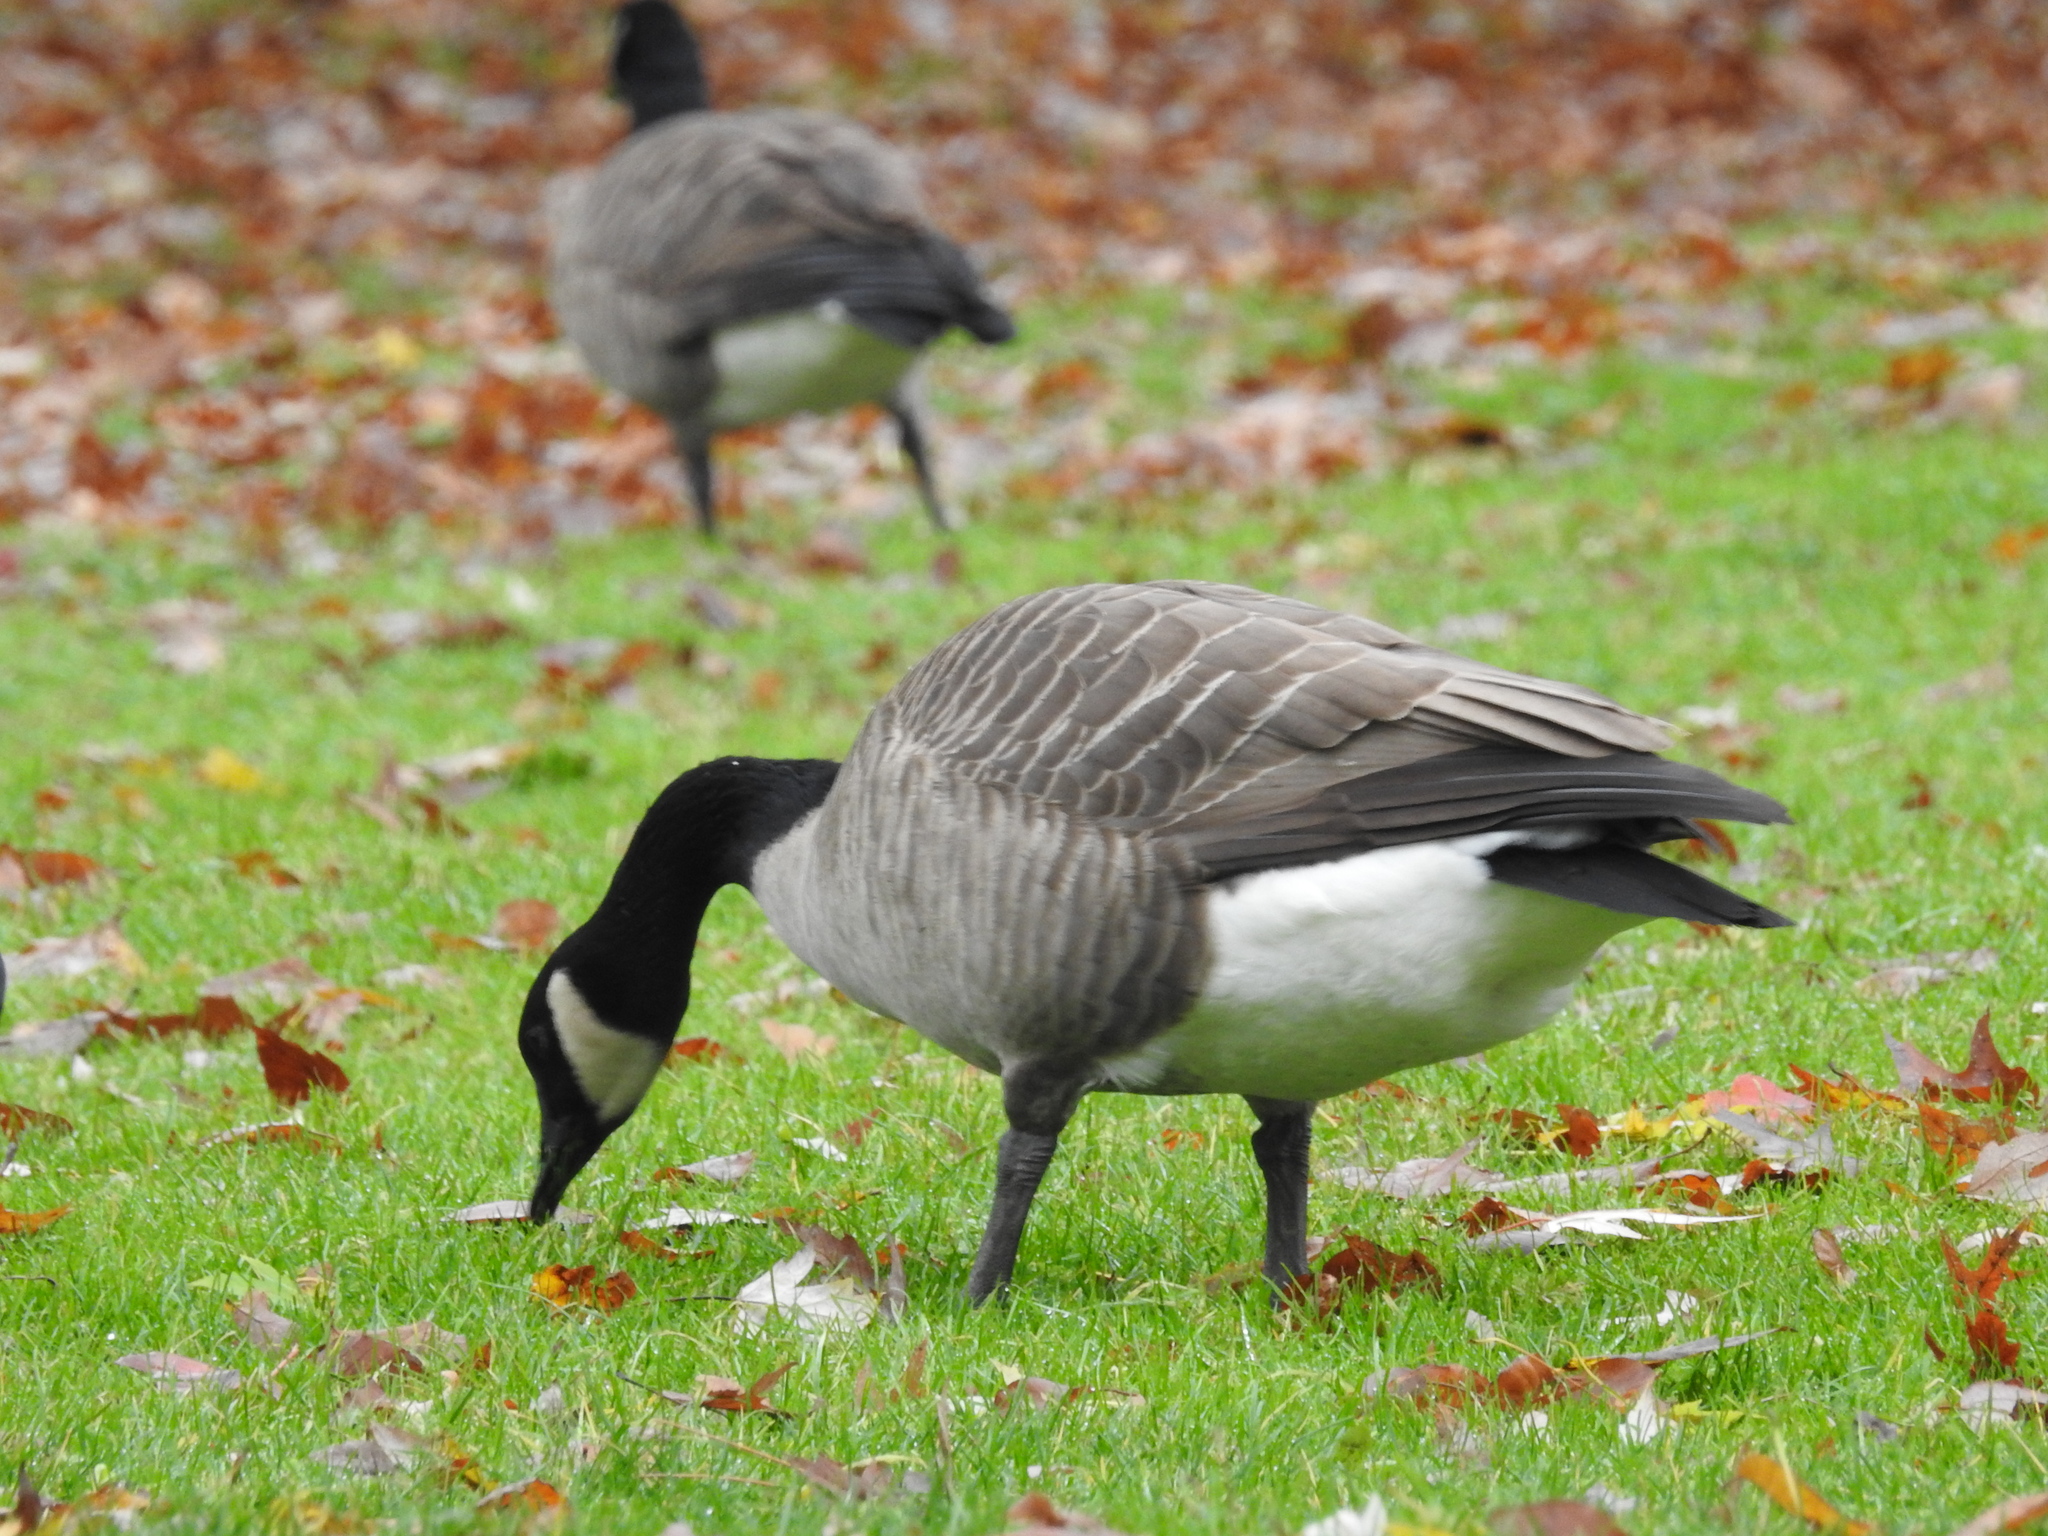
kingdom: Animalia
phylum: Chordata
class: Aves
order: Anseriformes
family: Anatidae
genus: Branta
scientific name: Branta canadensis
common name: Canada goose
